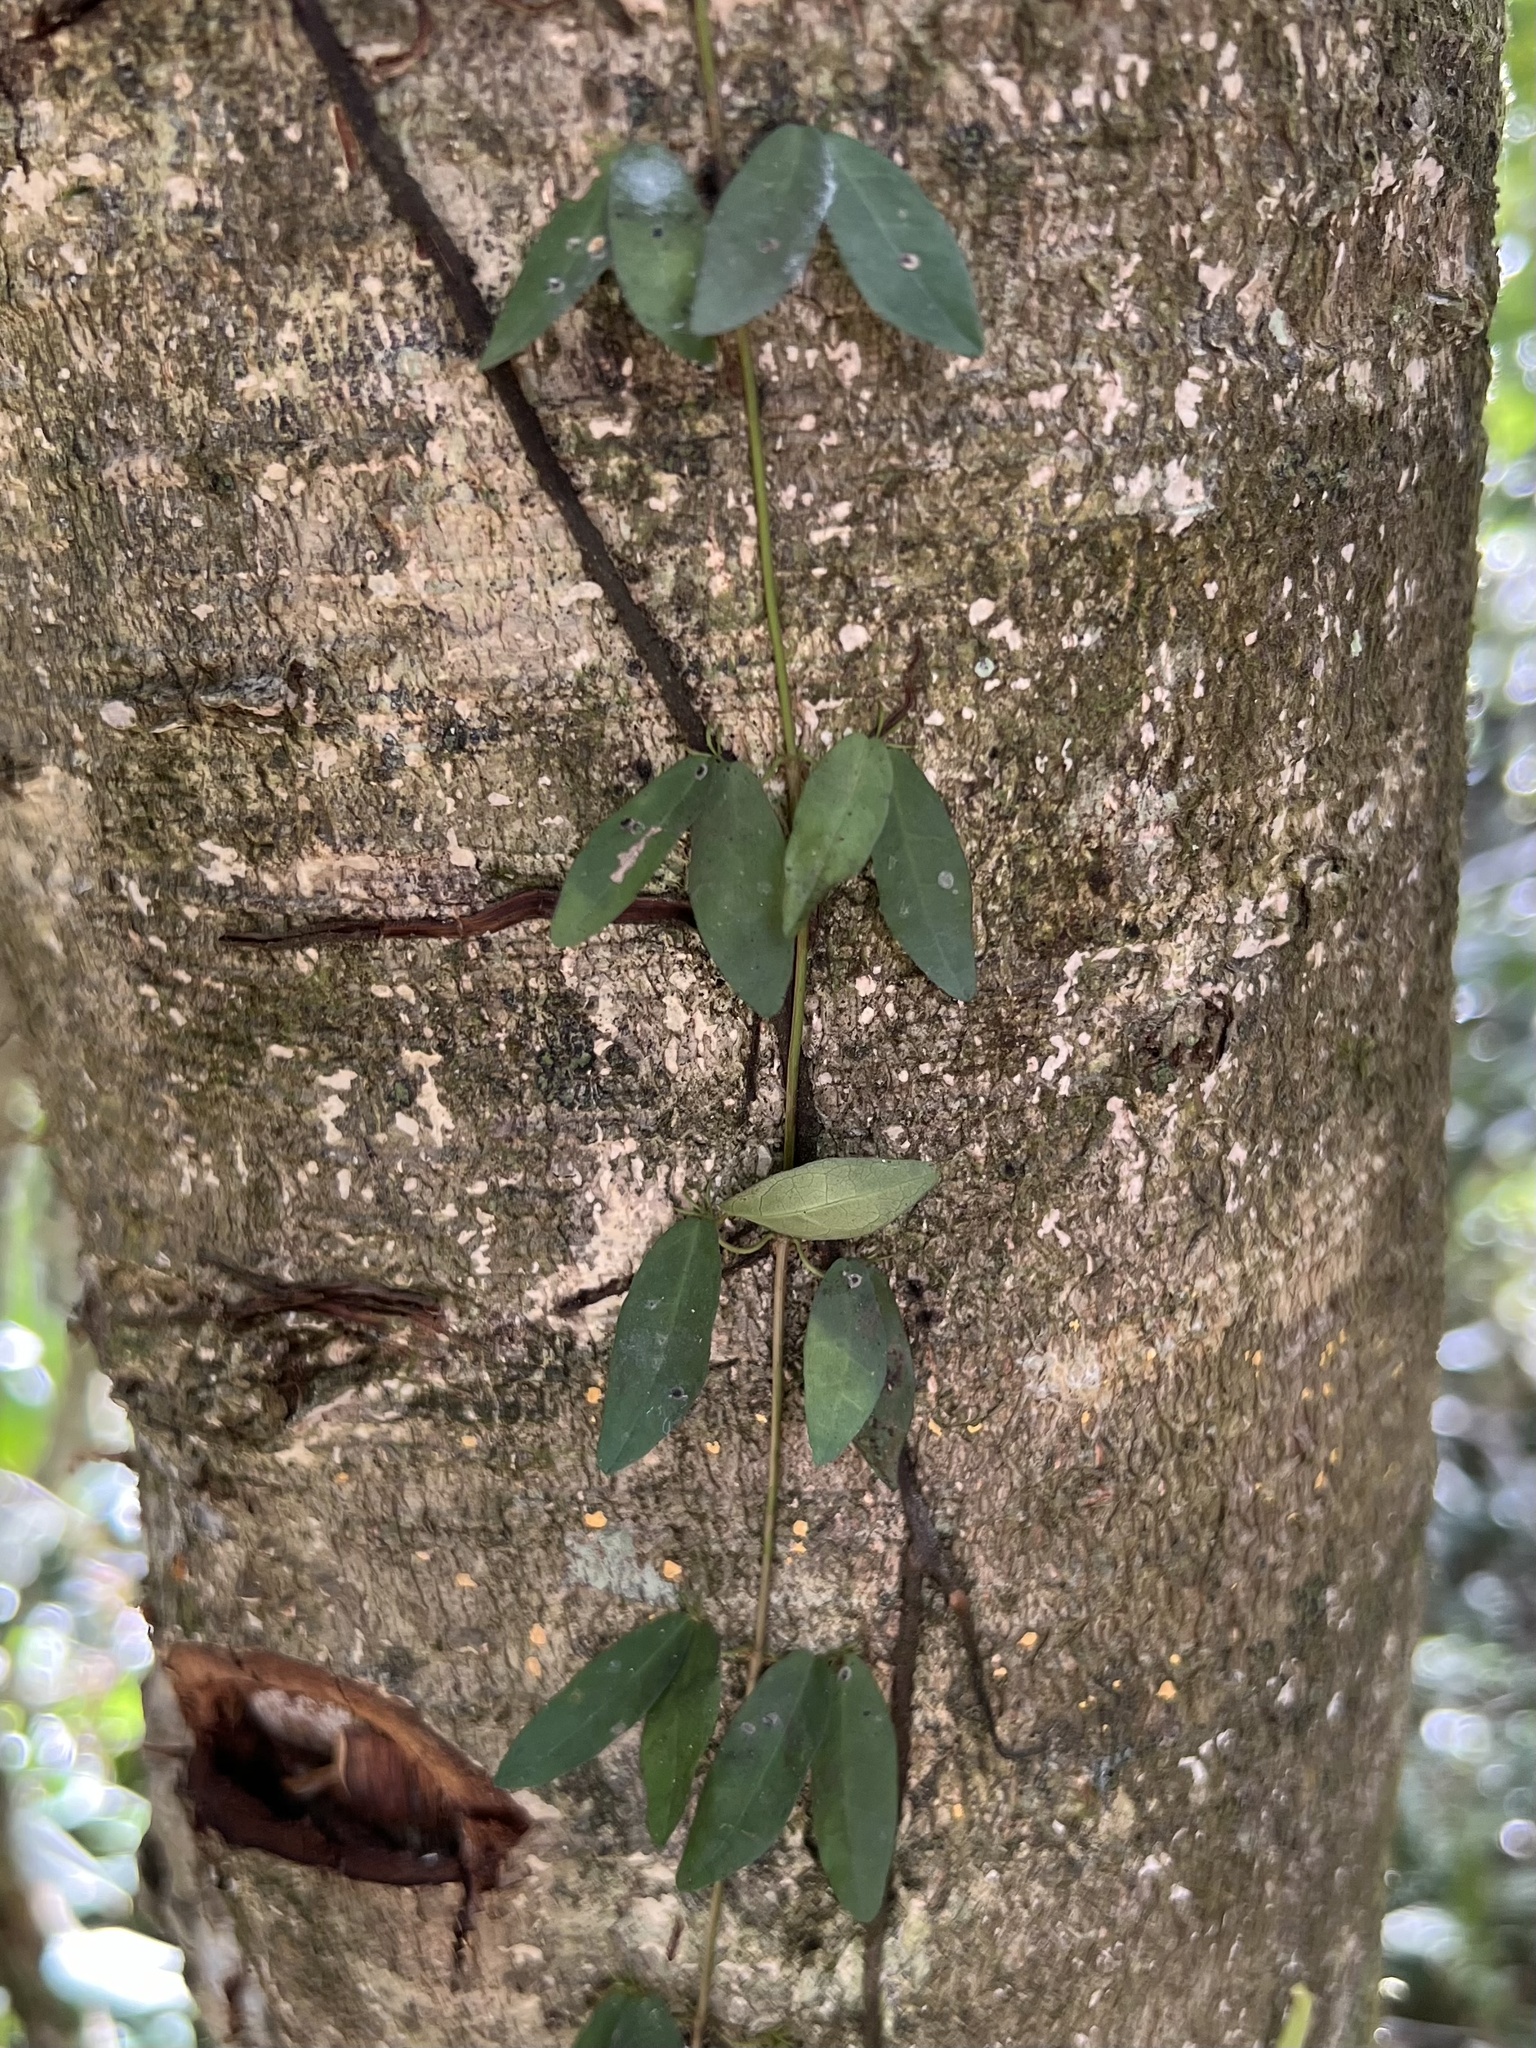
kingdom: Plantae
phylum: Tracheophyta
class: Magnoliopsida
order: Lamiales
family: Bignoniaceae
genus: Dolichandra
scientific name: Dolichandra unguis-cati
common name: Catclaw vine
